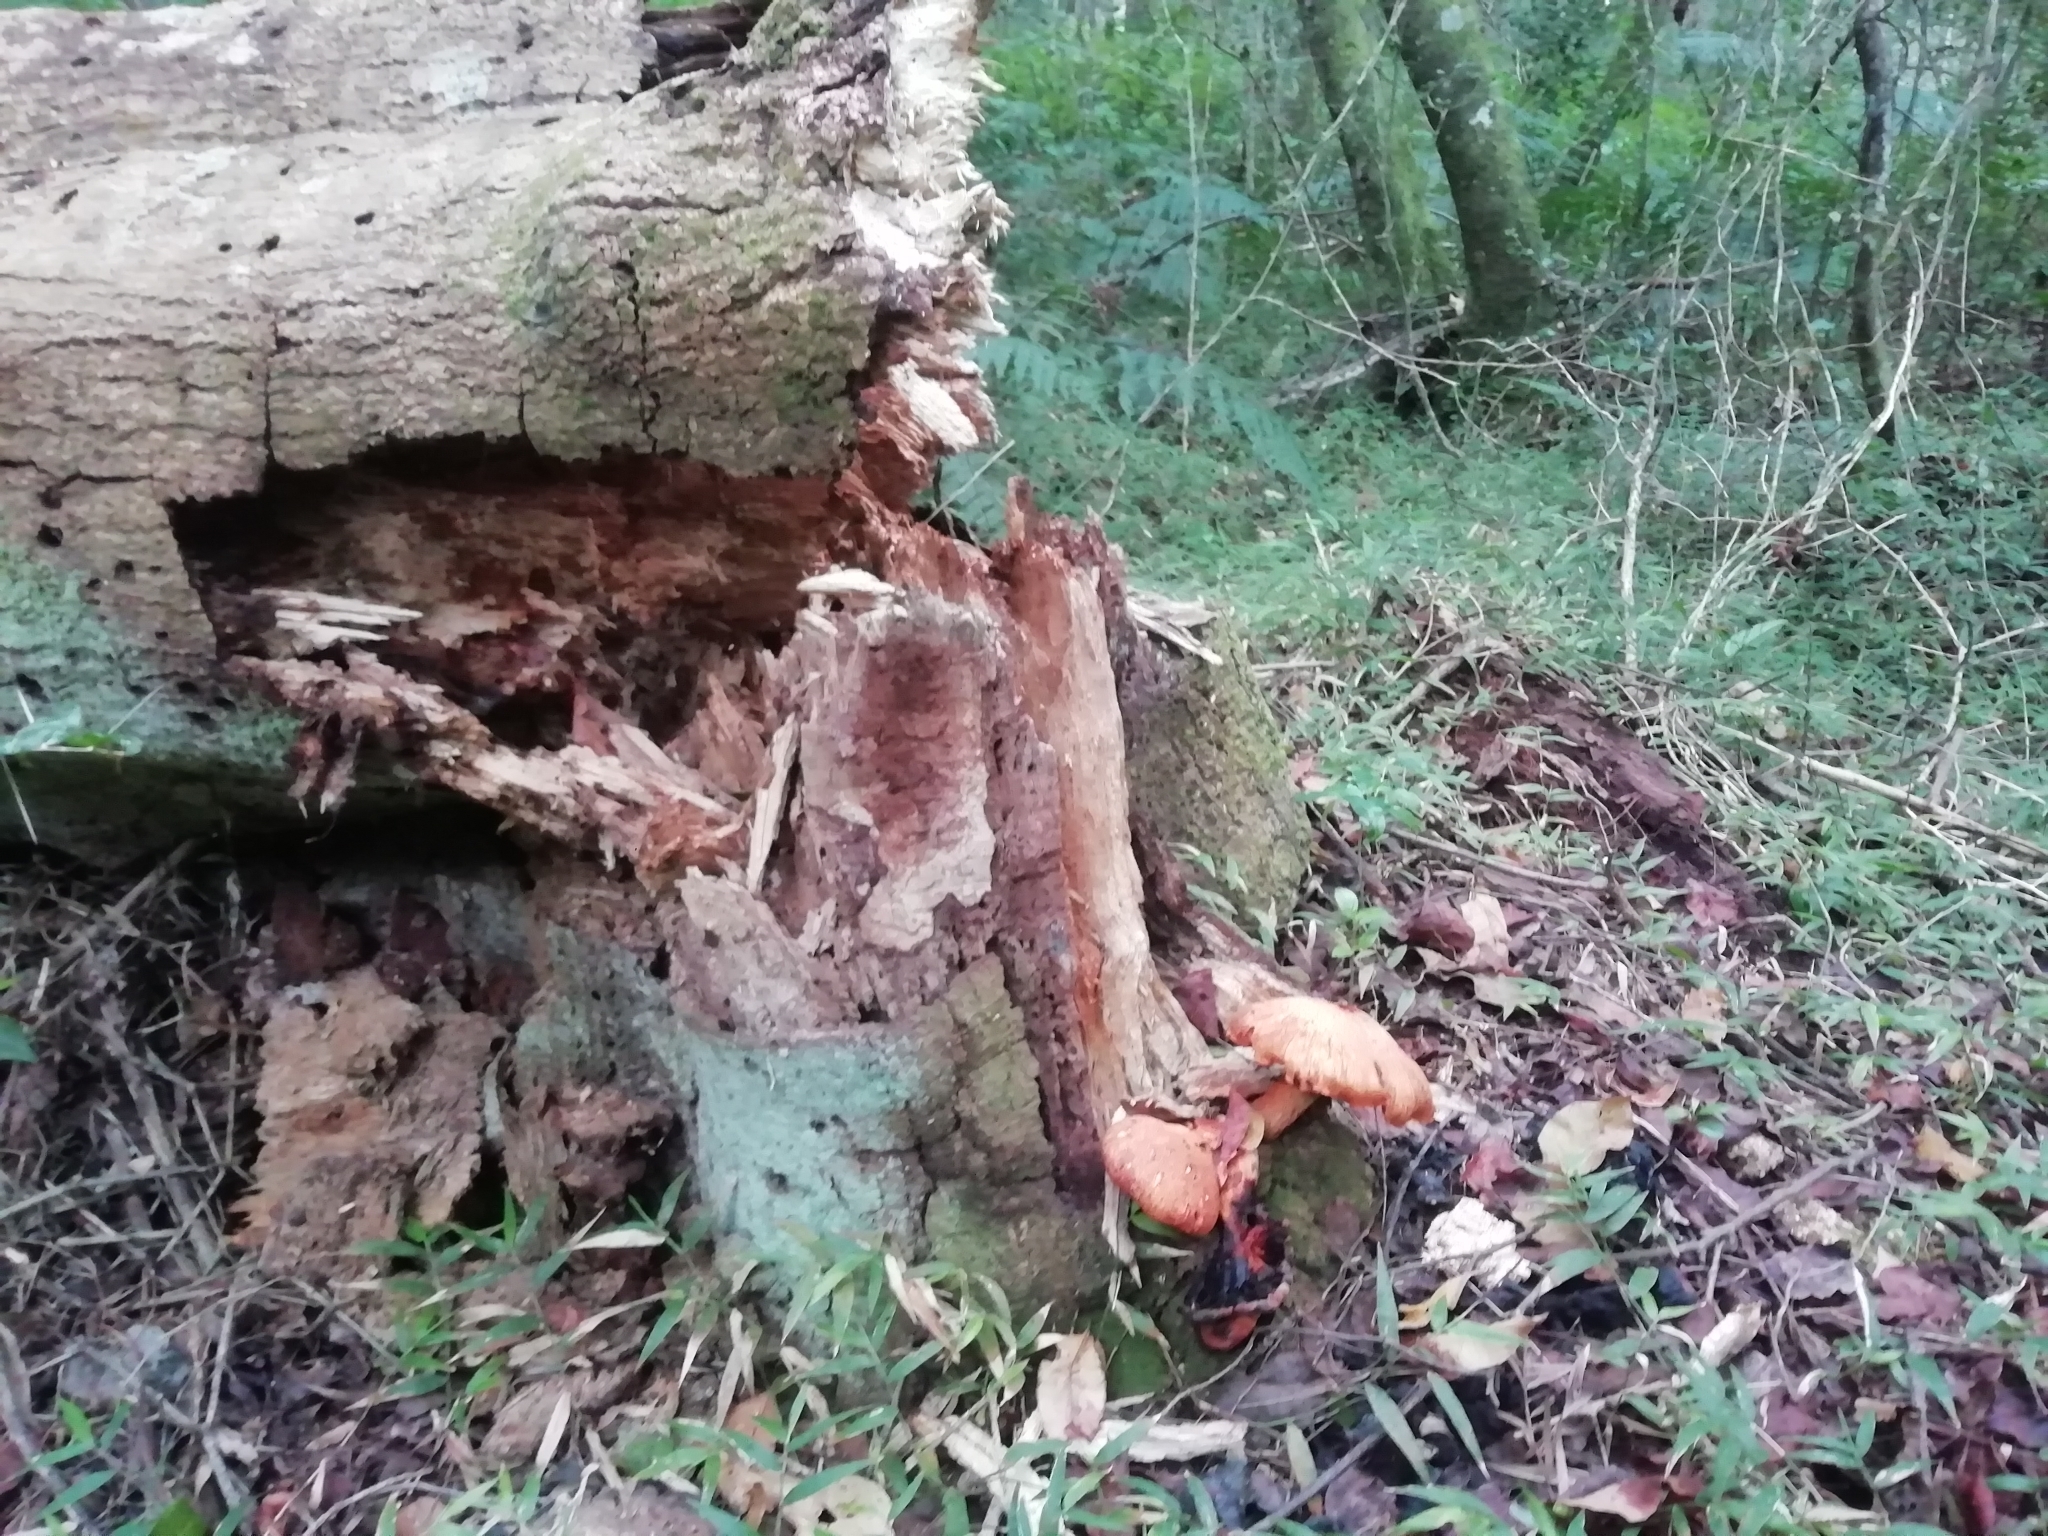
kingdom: Fungi
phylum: Basidiomycota
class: Agaricomycetes
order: Agaricales
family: Hymenogastraceae
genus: Gymnopilus
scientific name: Gymnopilus junonius
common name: Spectacular rustgill
